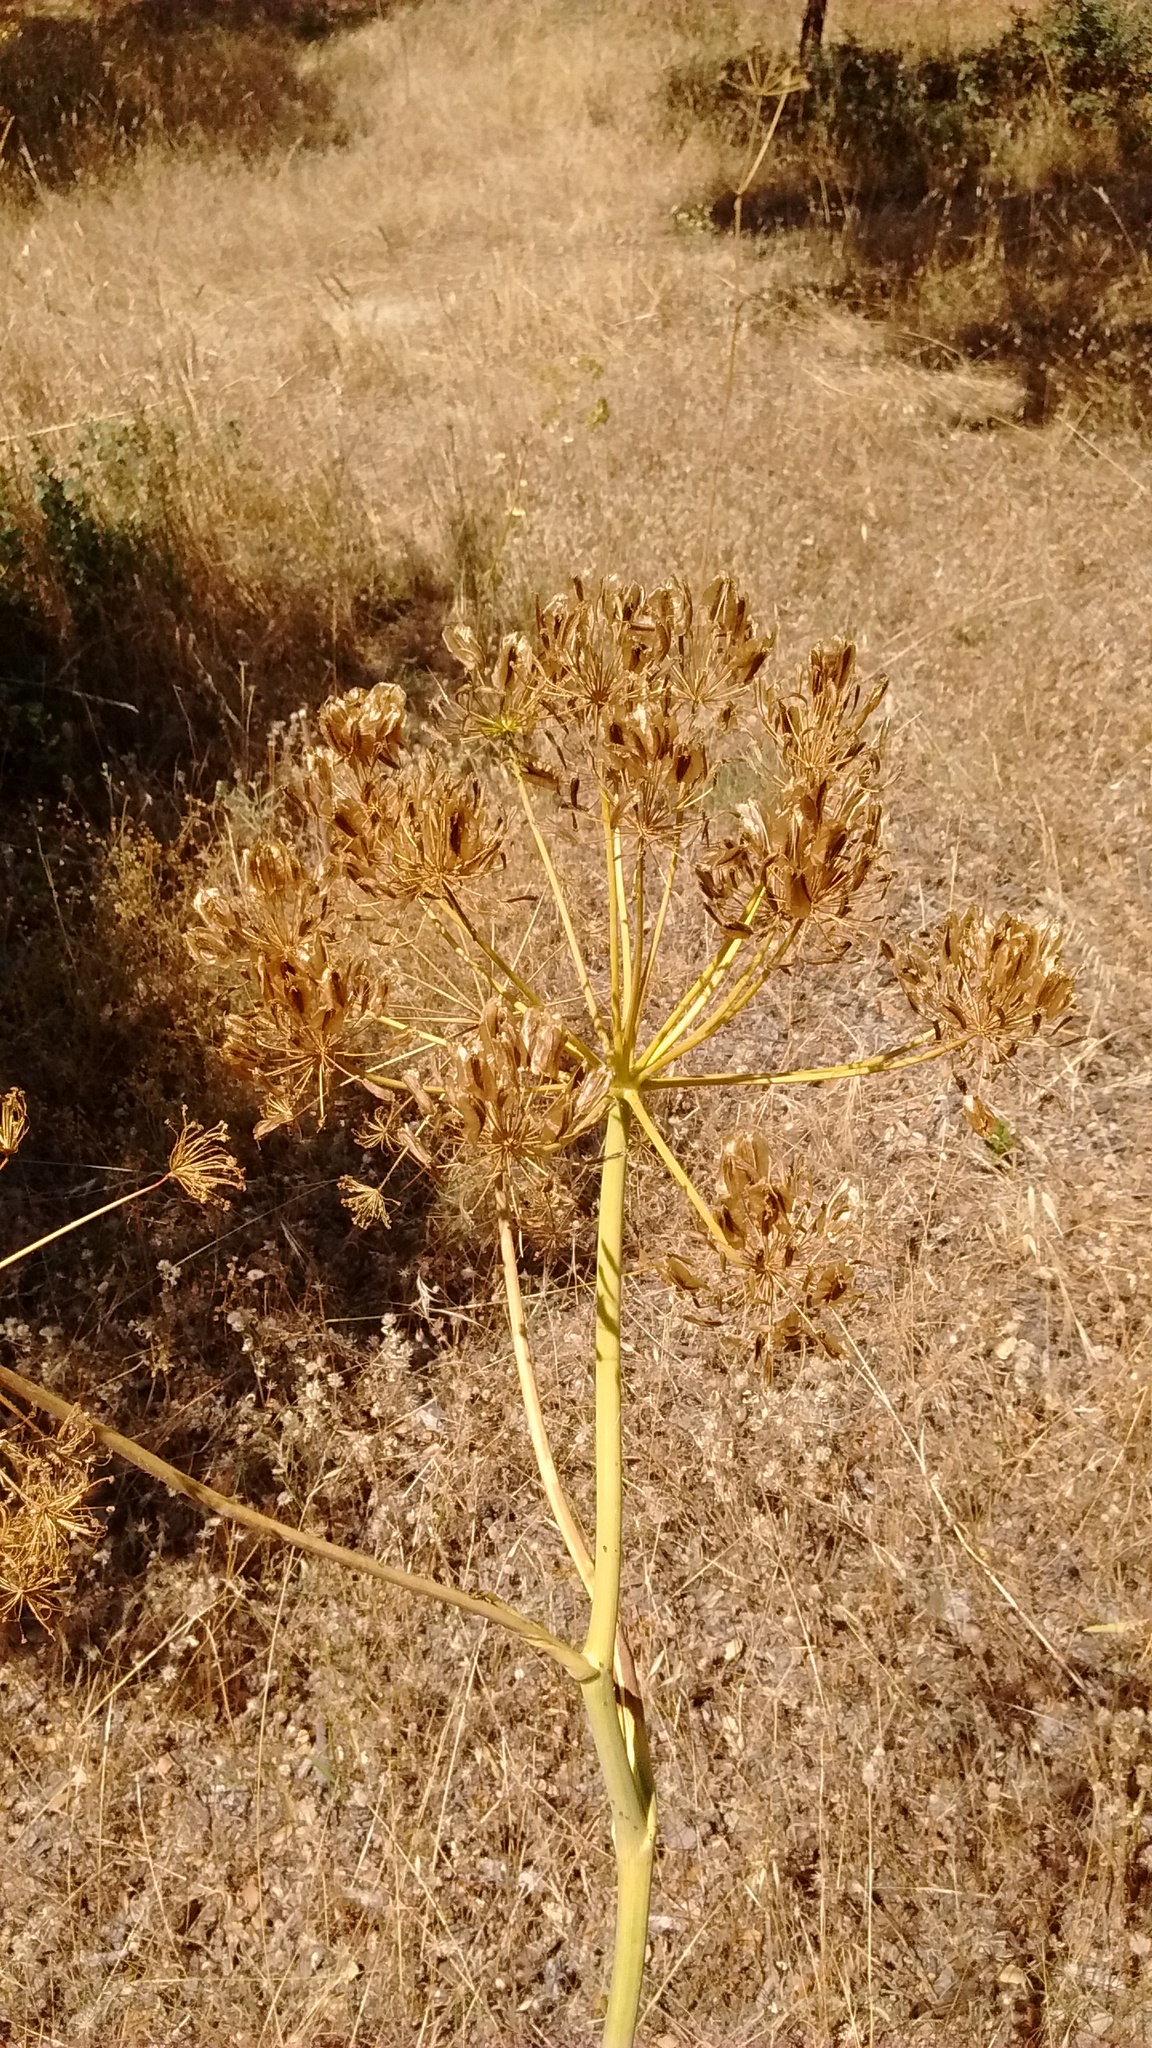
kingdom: Plantae
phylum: Tracheophyta
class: Magnoliopsida
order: Apiales
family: Apiaceae
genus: Thapsia
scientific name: Thapsia villosa
